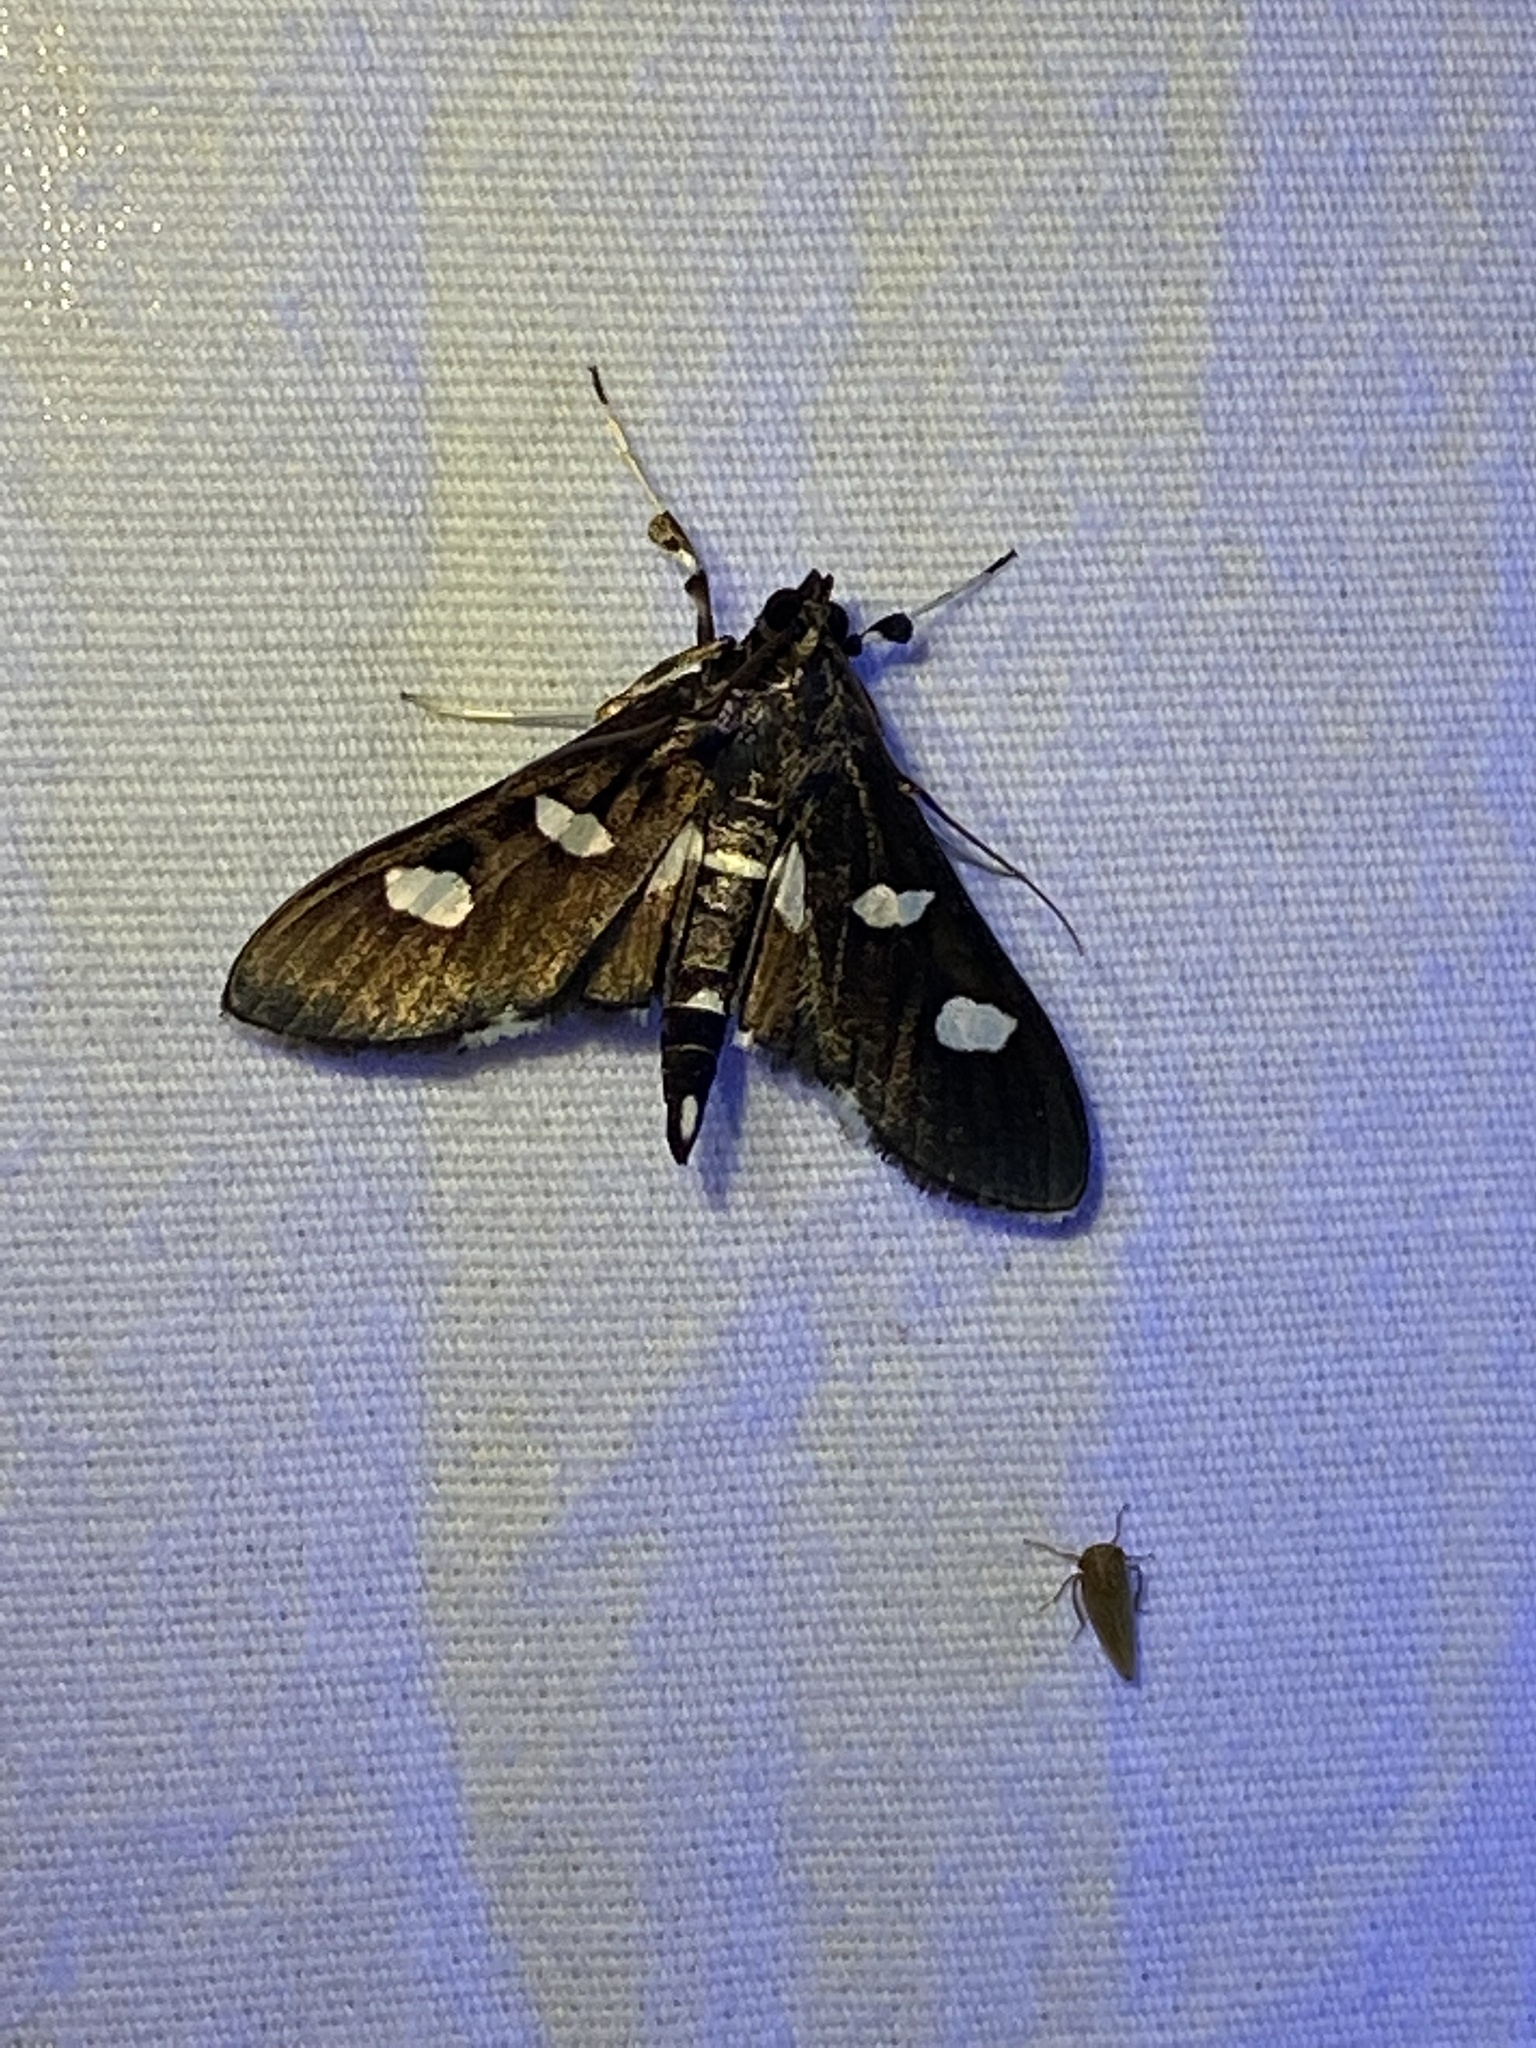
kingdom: Animalia
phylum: Arthropoda
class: Insecta
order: Lepidoptera
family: Crambidae
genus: Desmia
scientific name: Desmia
